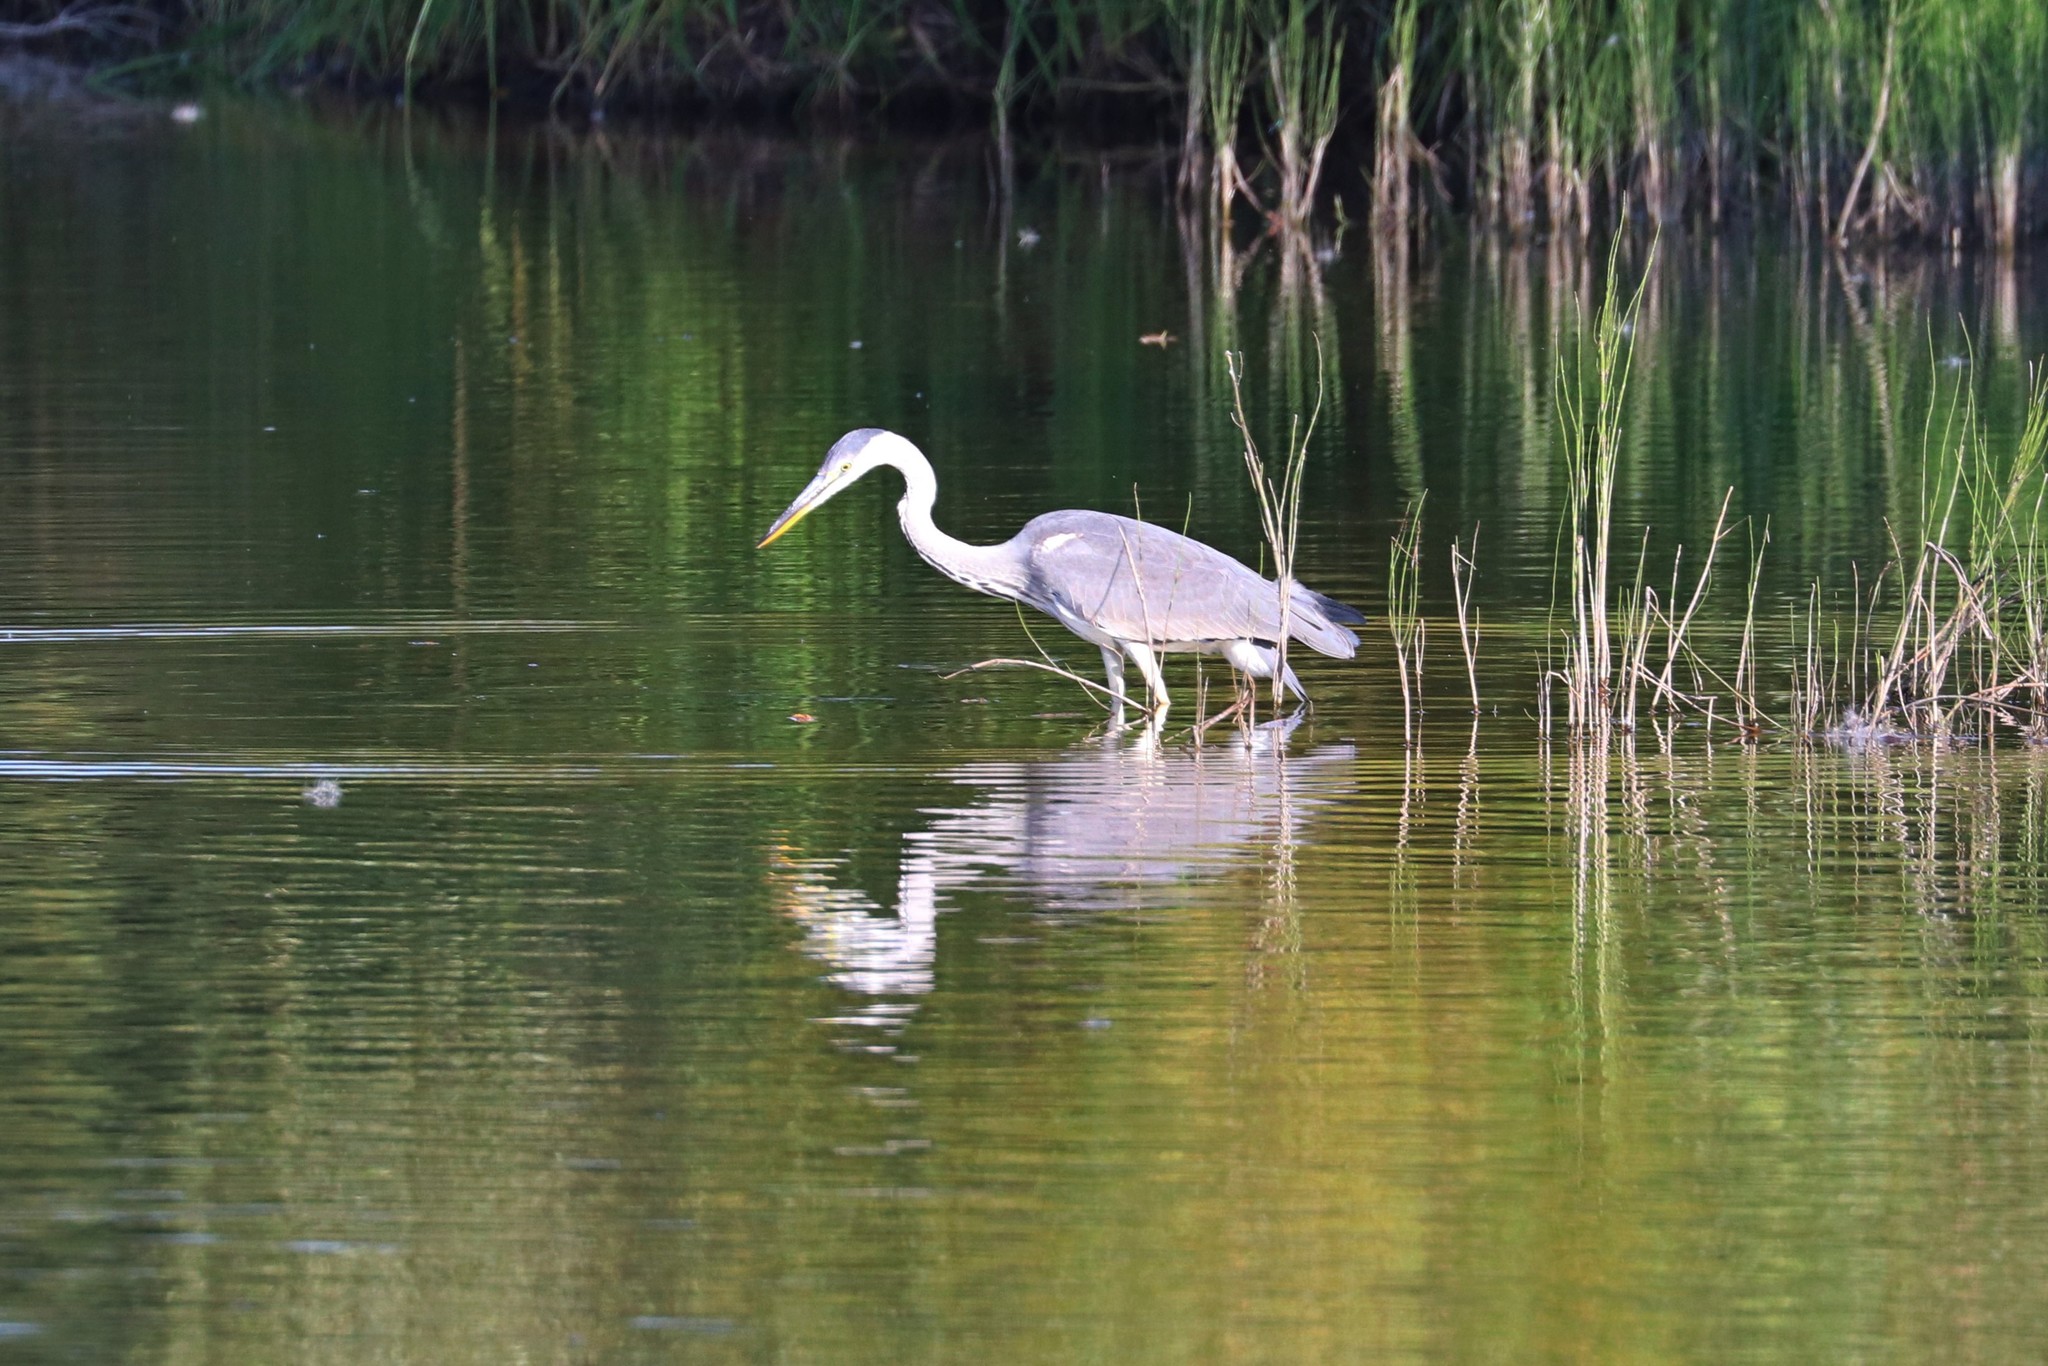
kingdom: Animalia
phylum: Chordata
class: Aves
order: Pelecaniformes
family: Ardeidae
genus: Ardea
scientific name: Ardea cinerea
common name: Grey heron
